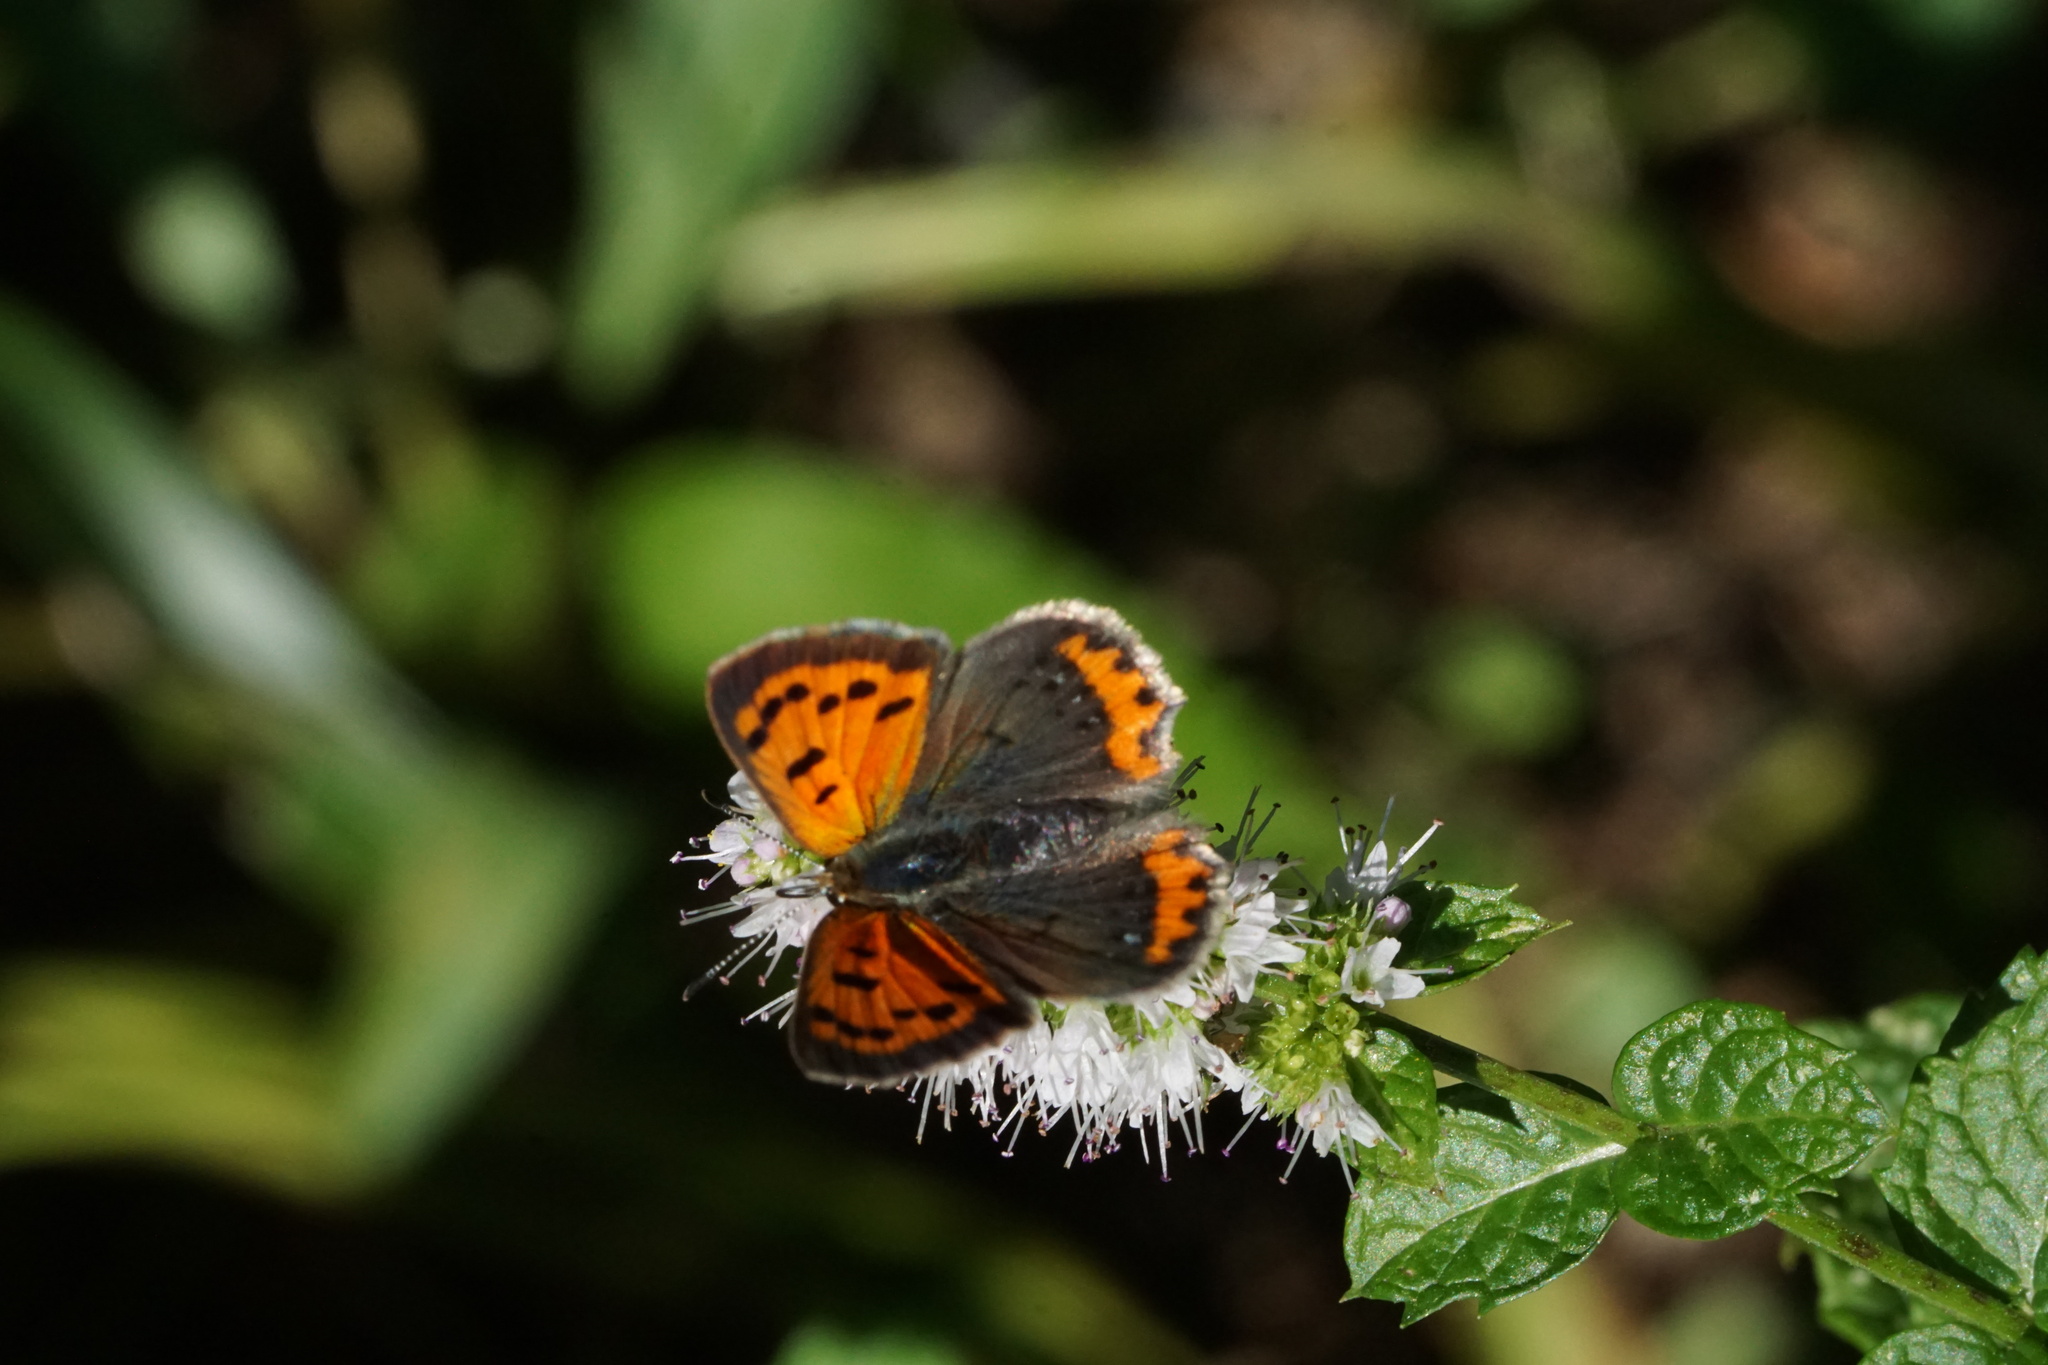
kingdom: Animalia
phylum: Arthropoda
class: Insecta
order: Lepidoptera
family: Lycaenidae
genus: Lycaena
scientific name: Lycaena hypophlaeas
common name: American copper
